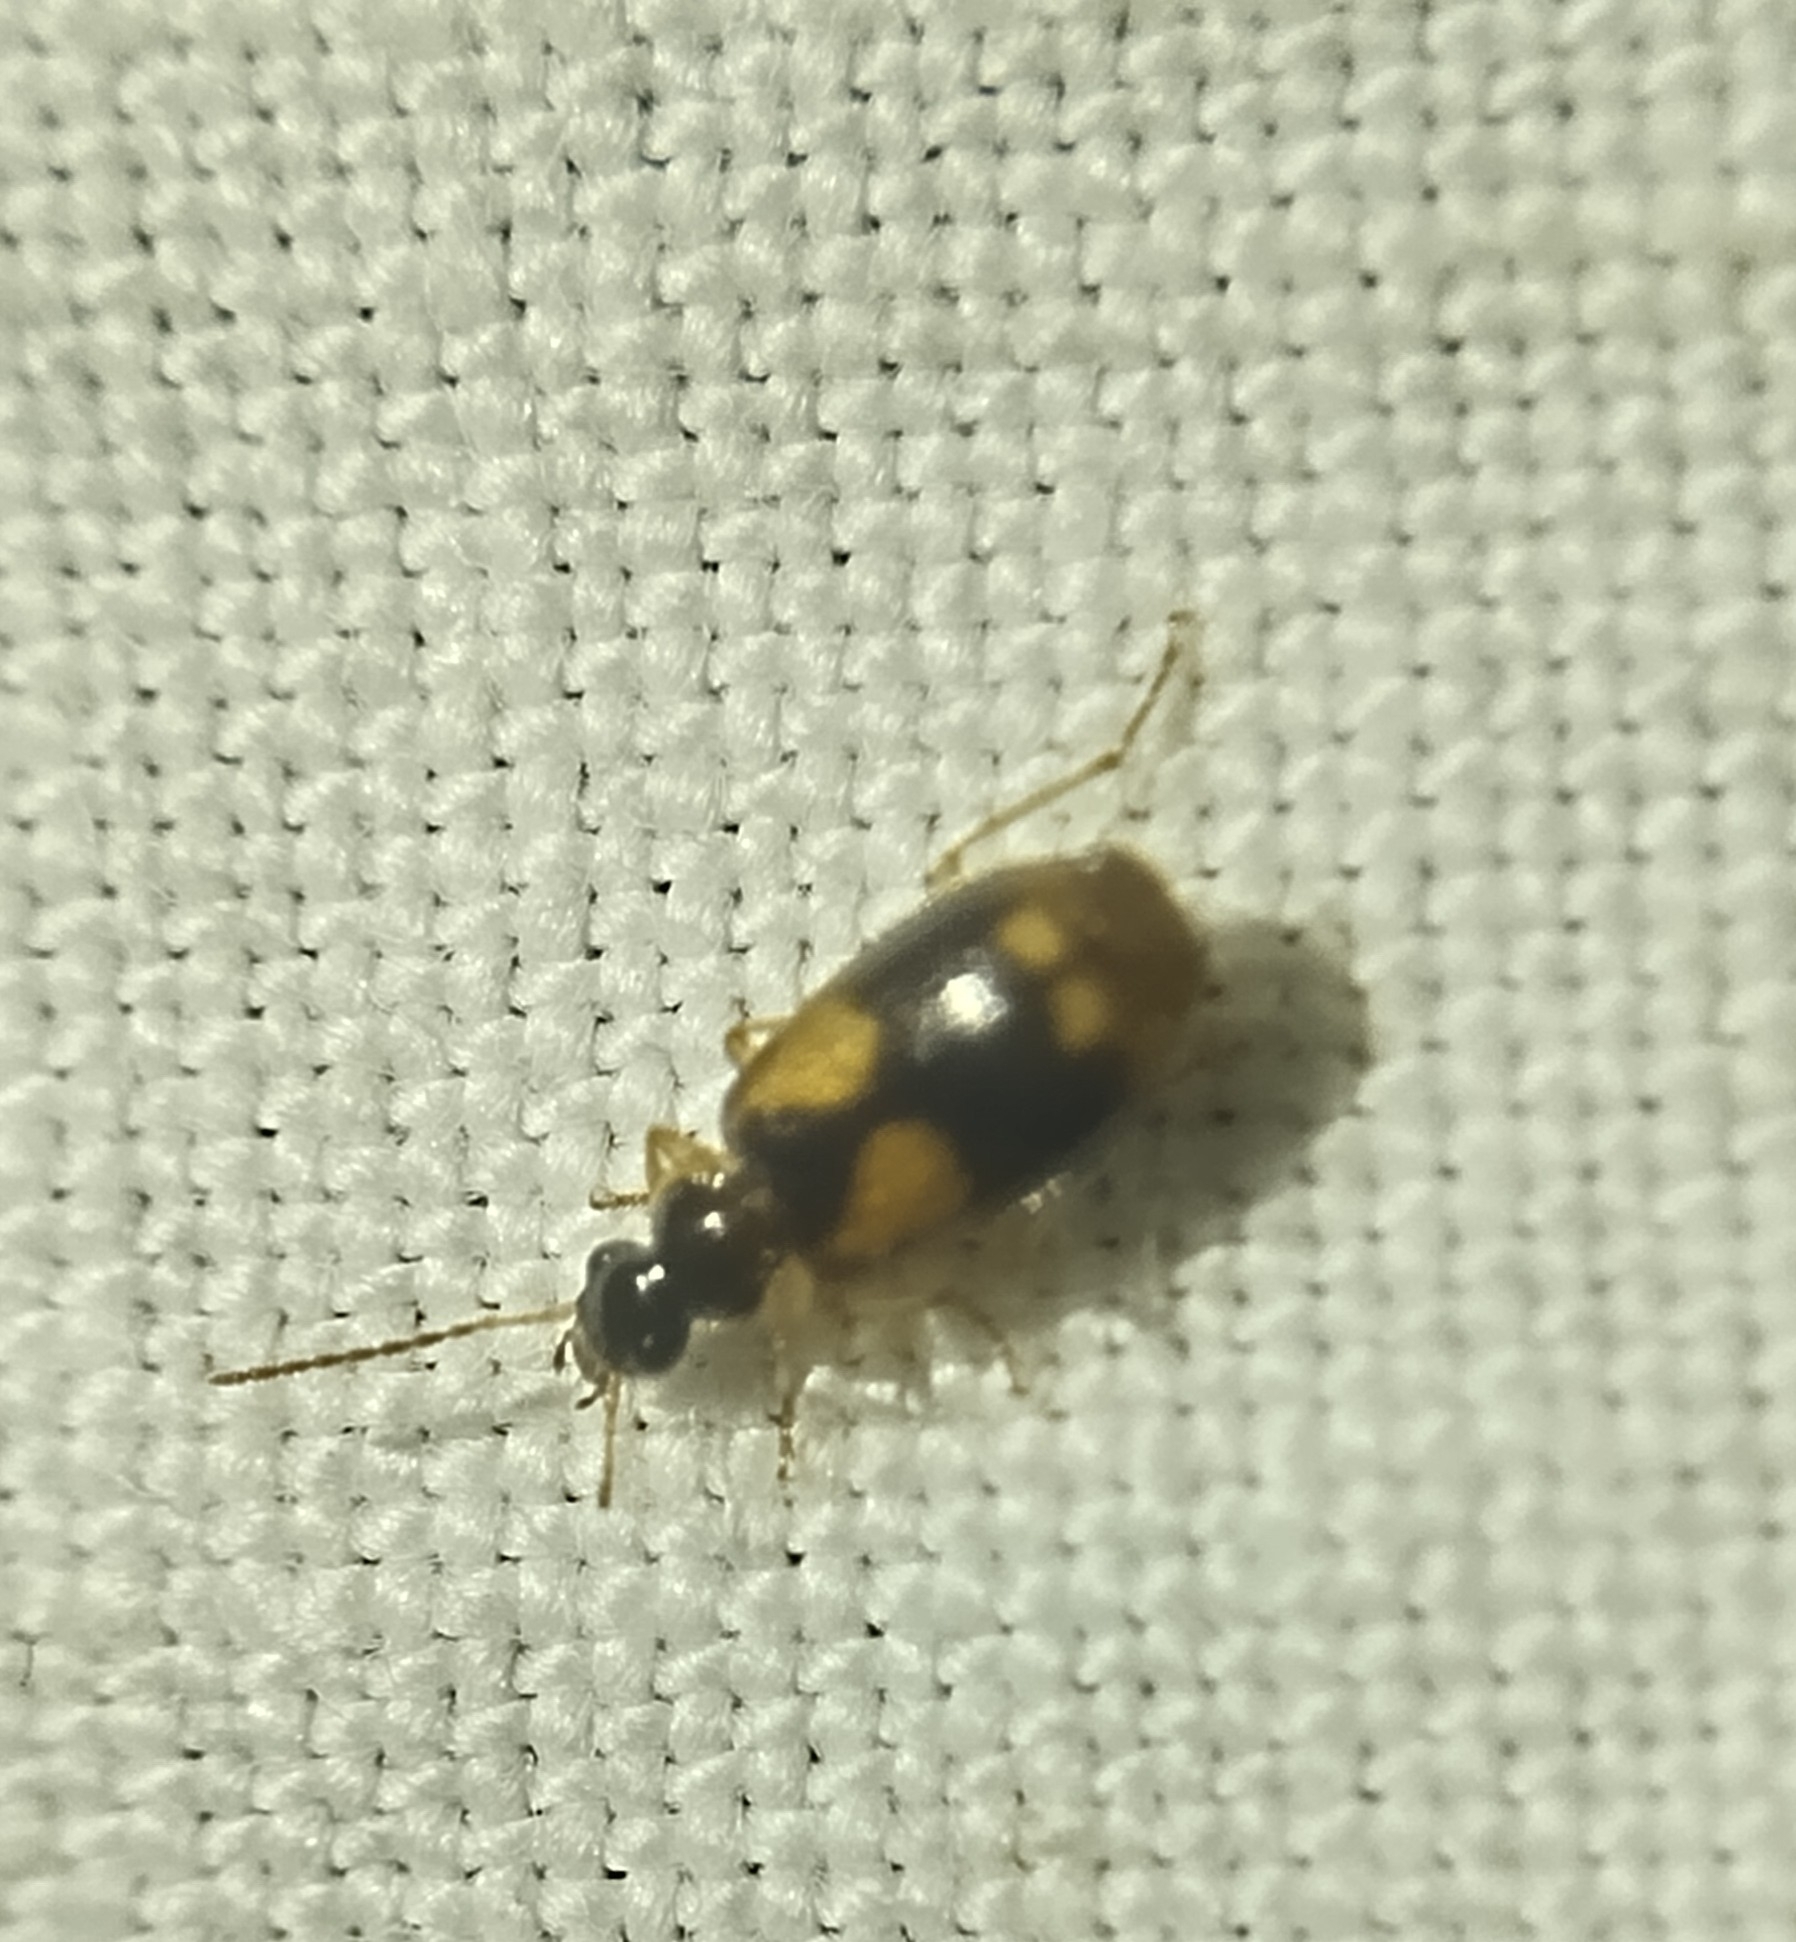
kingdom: Animalia
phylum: Arthropoda
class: Insecta
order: Coleoptera
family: Carabidae
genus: Lebia
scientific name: Lebia ornata
